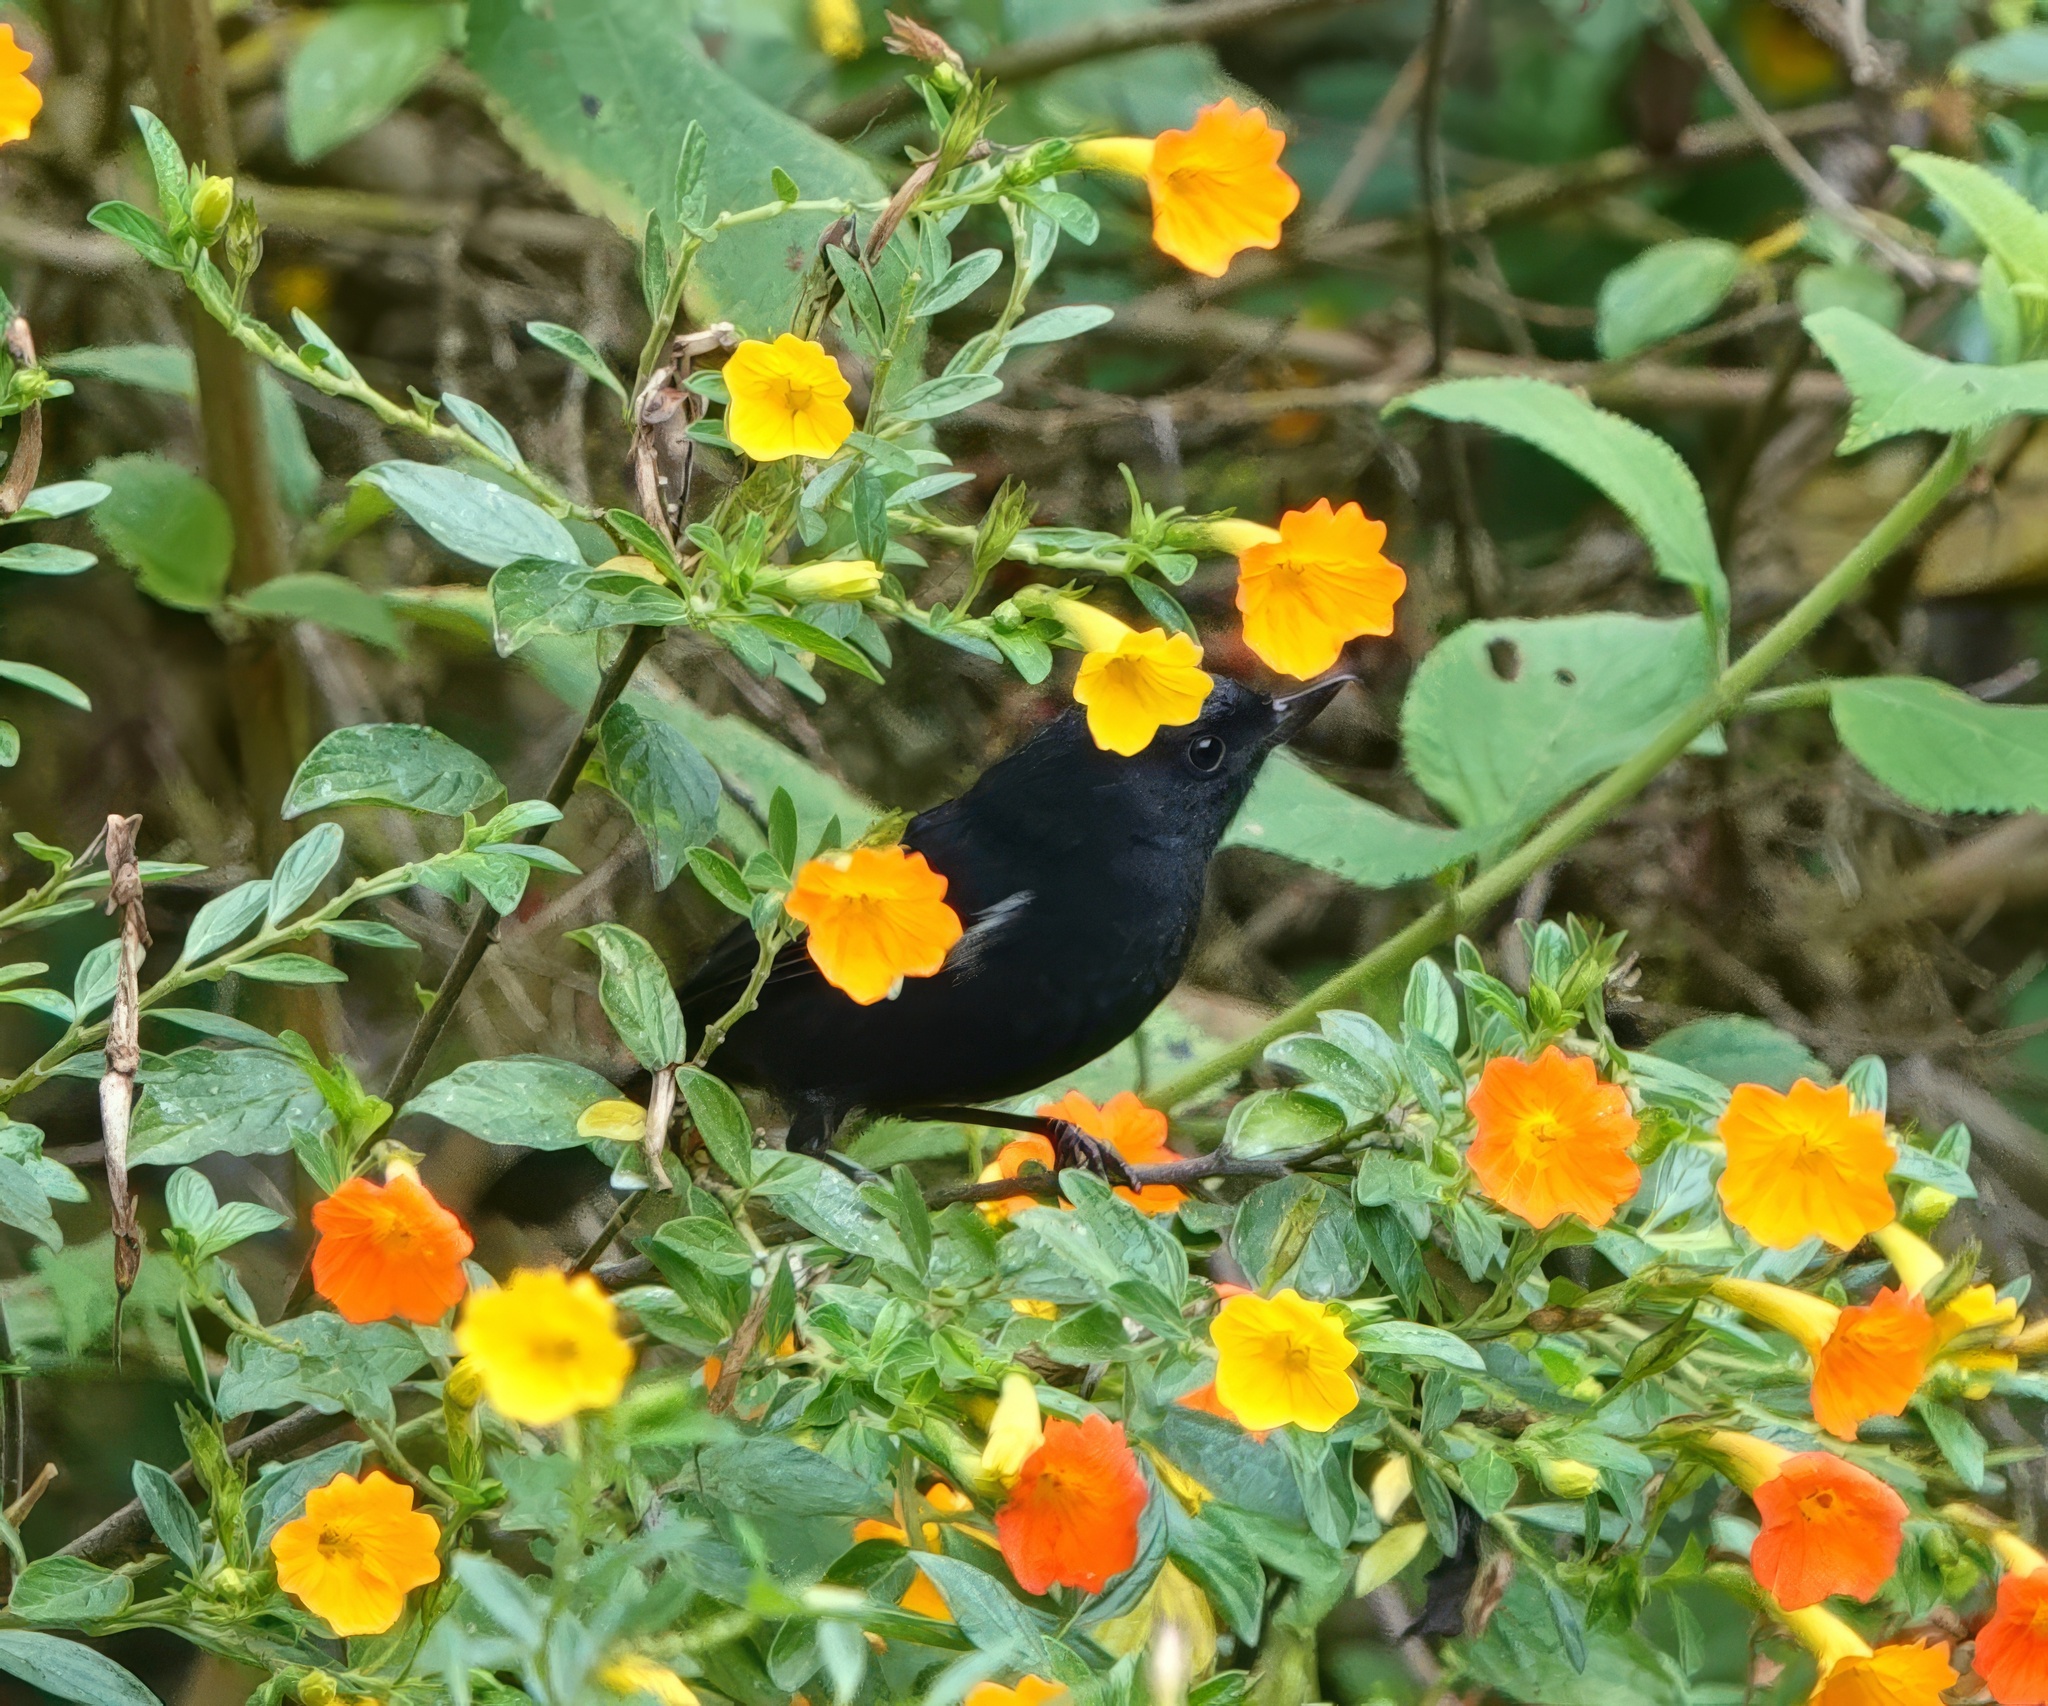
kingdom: Animalia
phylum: Chordata
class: Aves
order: Passeriformes
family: Thraupidae
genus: Diglossa
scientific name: Diglossa albilatera
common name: White-sided flowerpiercer
